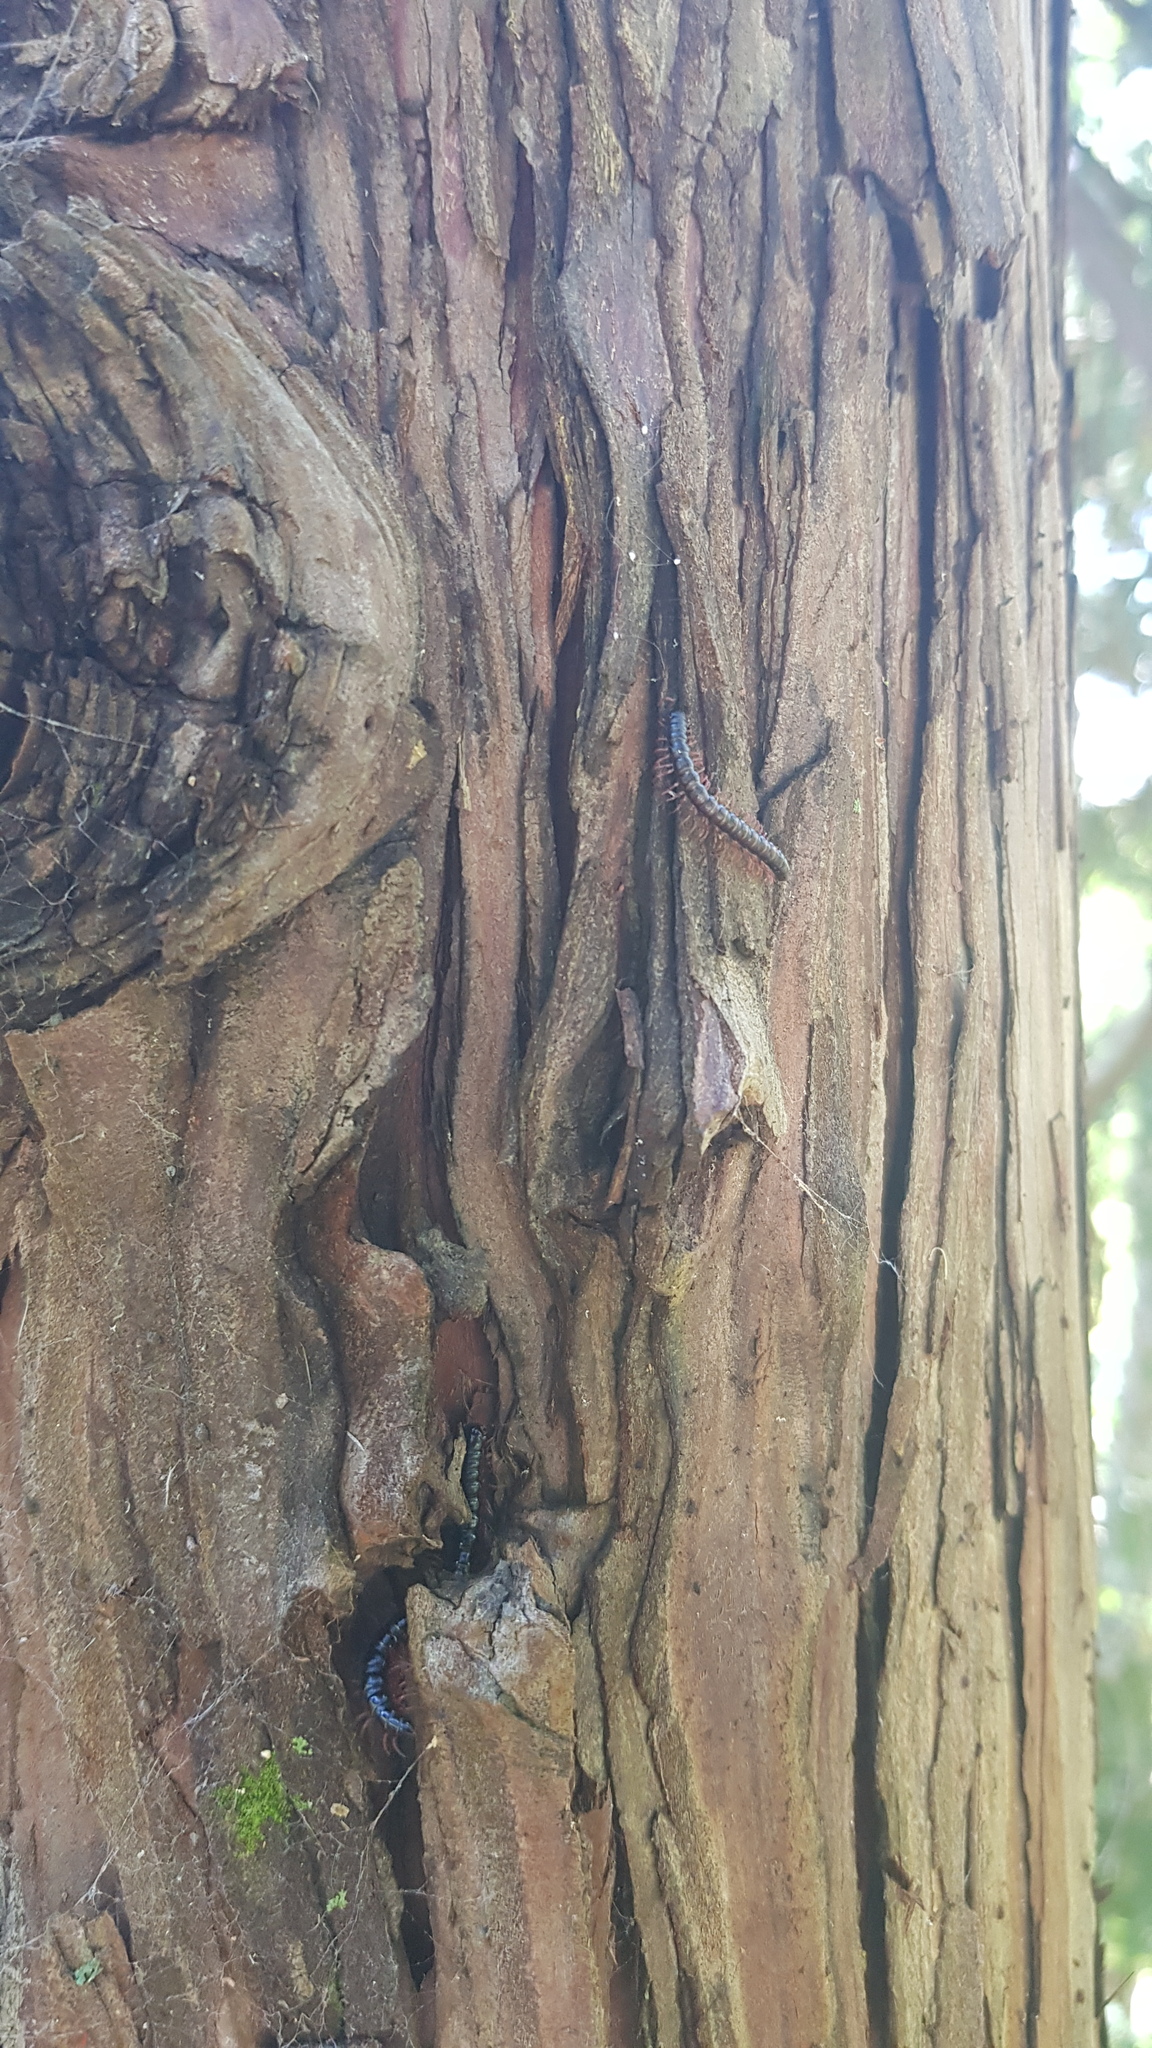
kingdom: Animalia
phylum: Arthropoda
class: Diplopoda
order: Polydesmida
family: Paradoxosomatidae
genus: Heterocladosoma
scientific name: Heterocladosoma
